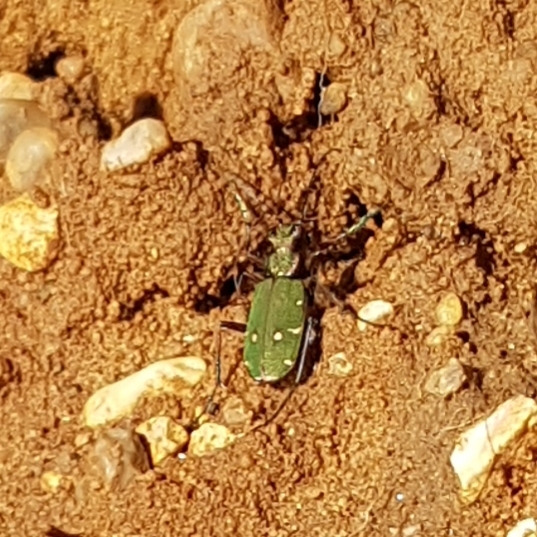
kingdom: Animalia
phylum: Arthropoda
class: Insecta
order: Coleoptera
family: Carabidae
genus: Cicindela
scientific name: Cicindela campestris
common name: Common tiger beetle
